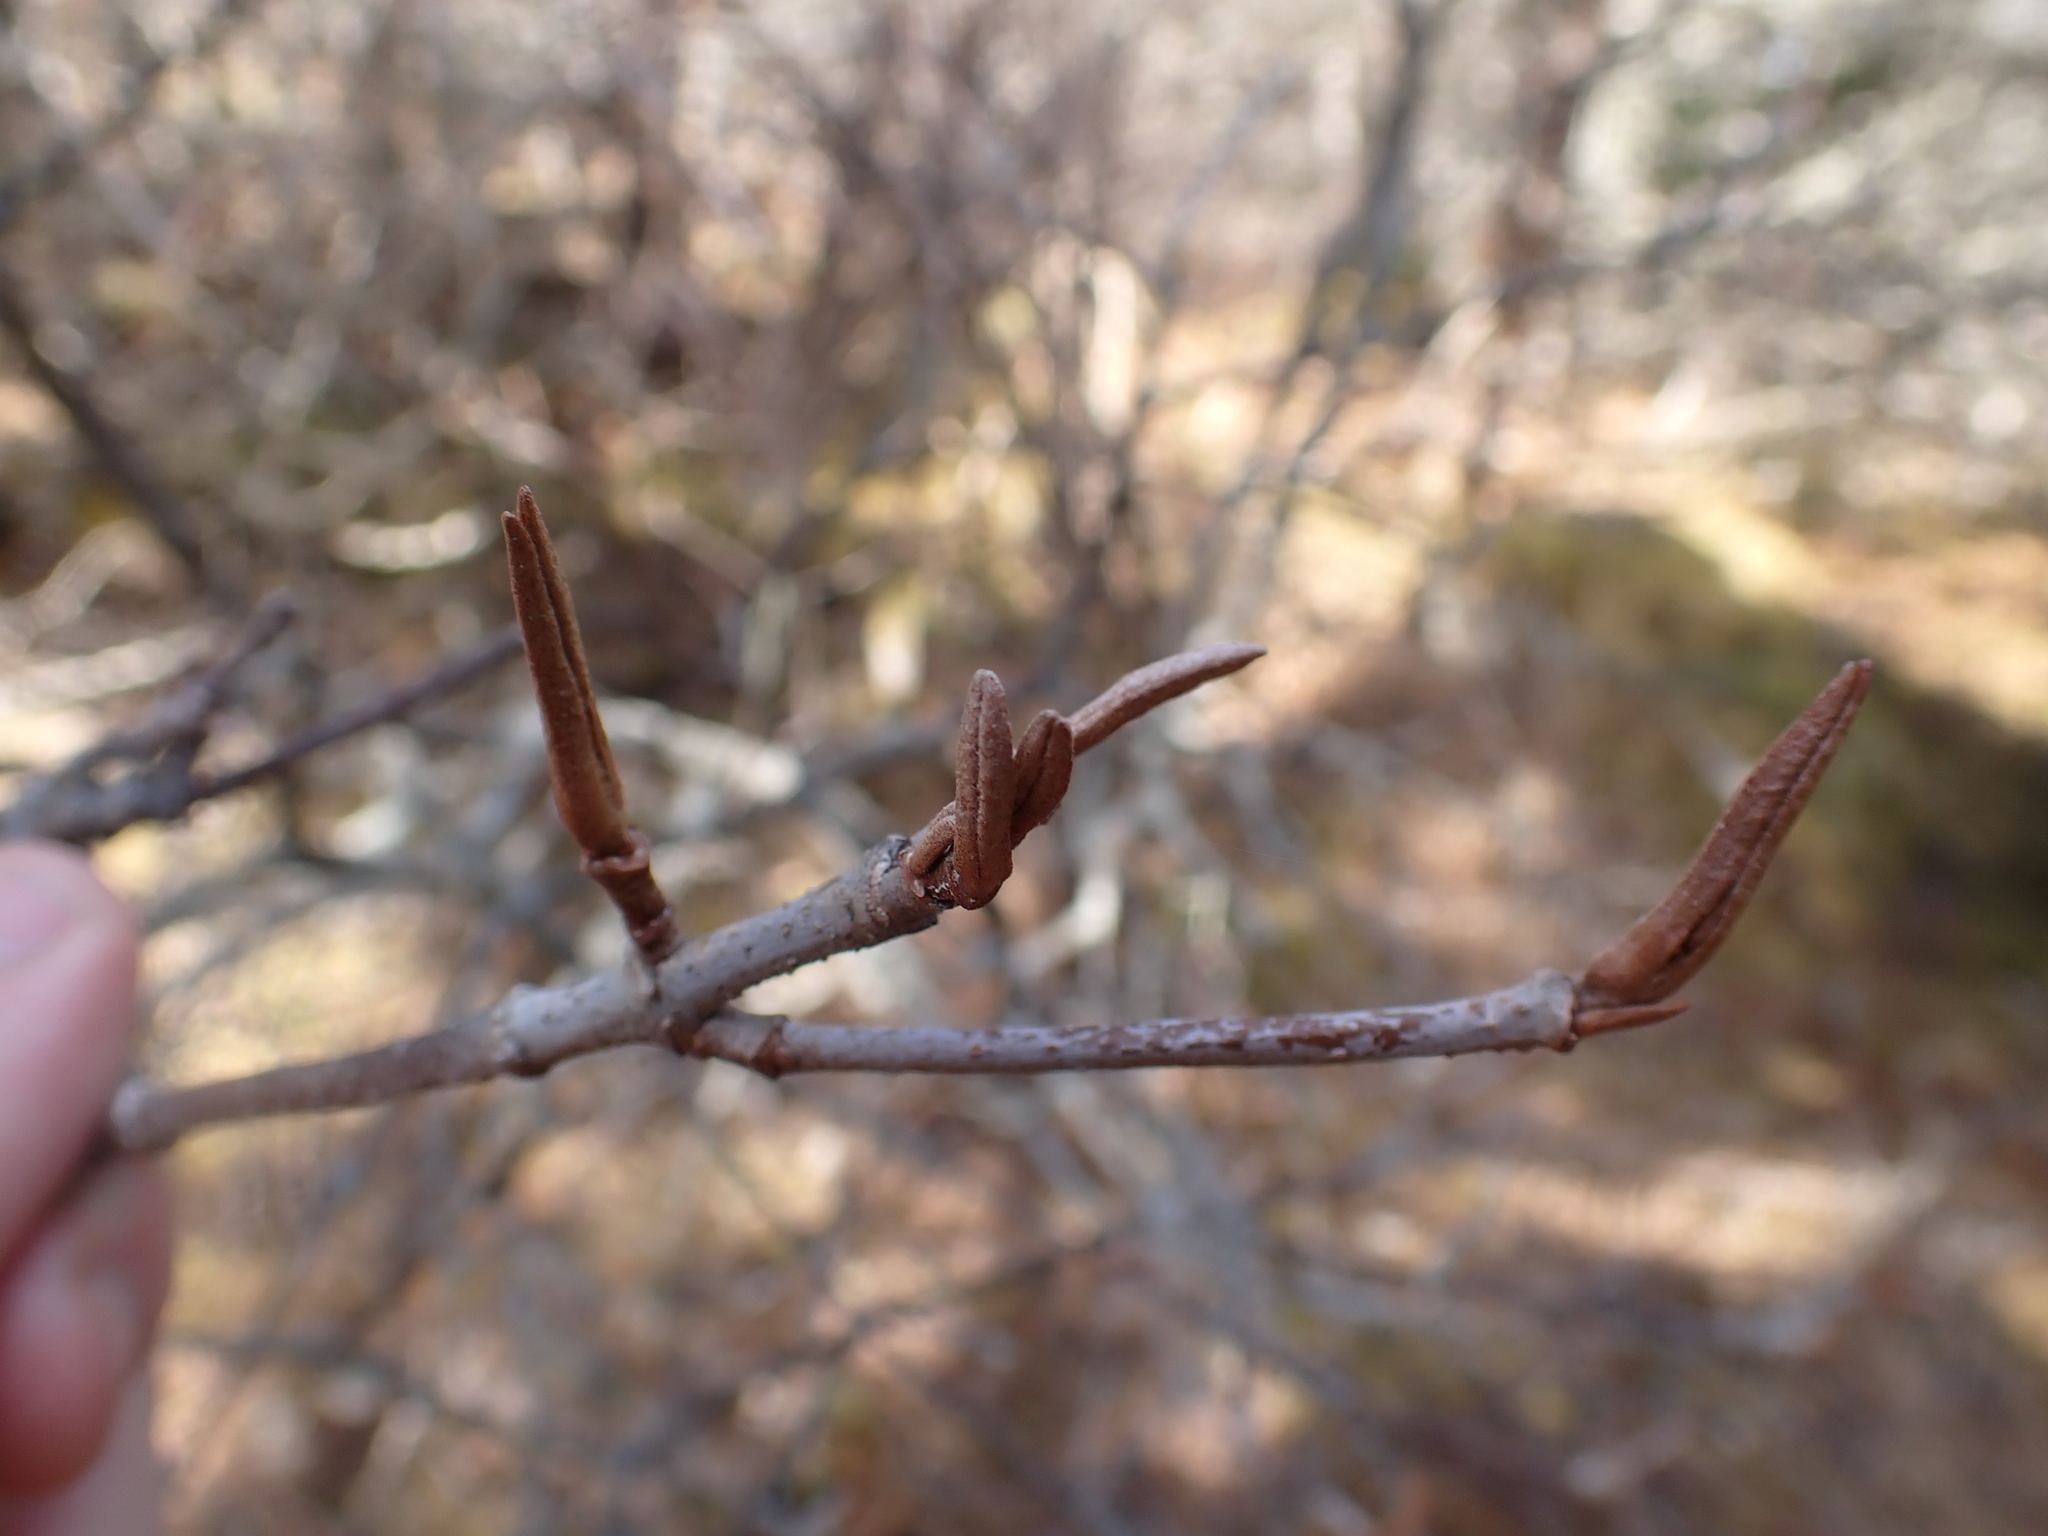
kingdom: Plantae
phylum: Tracheophyta
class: Magnoliopsida
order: Dipsacales
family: Viburnaceae
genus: Viburnum
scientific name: Viburnum cassinoides
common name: Swamp haw
